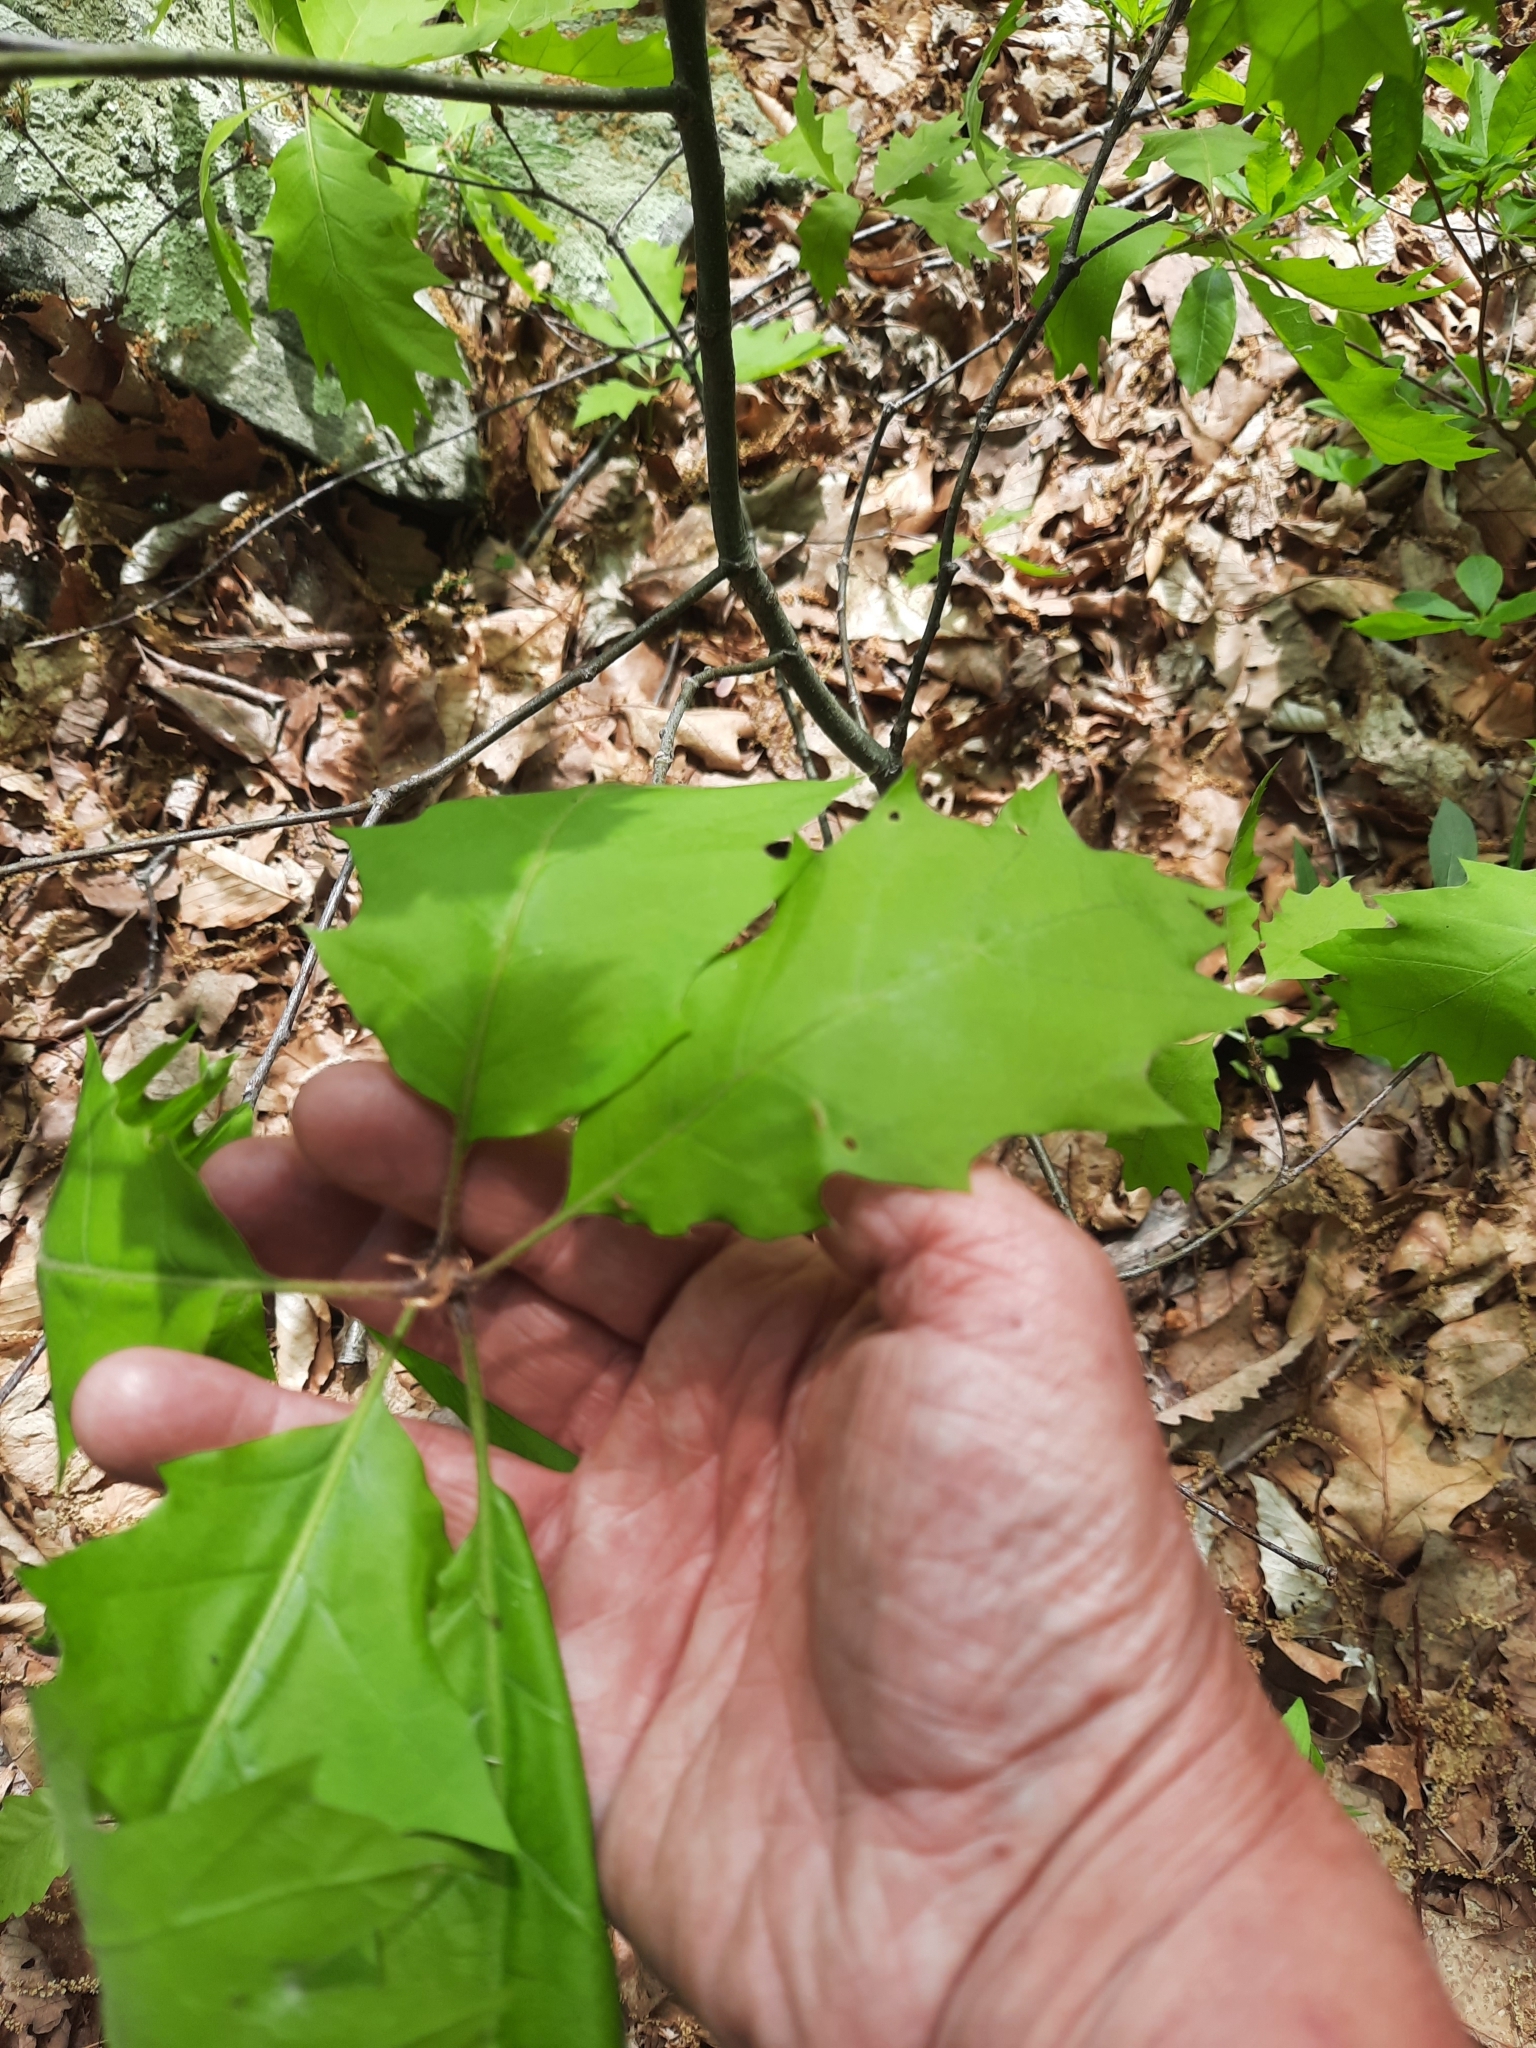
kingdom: Plantae
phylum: Tracheophyta
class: Magnoliopsida
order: Fagales
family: Fagaceae
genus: Quercus
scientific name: Quercus rubra
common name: Red oak
